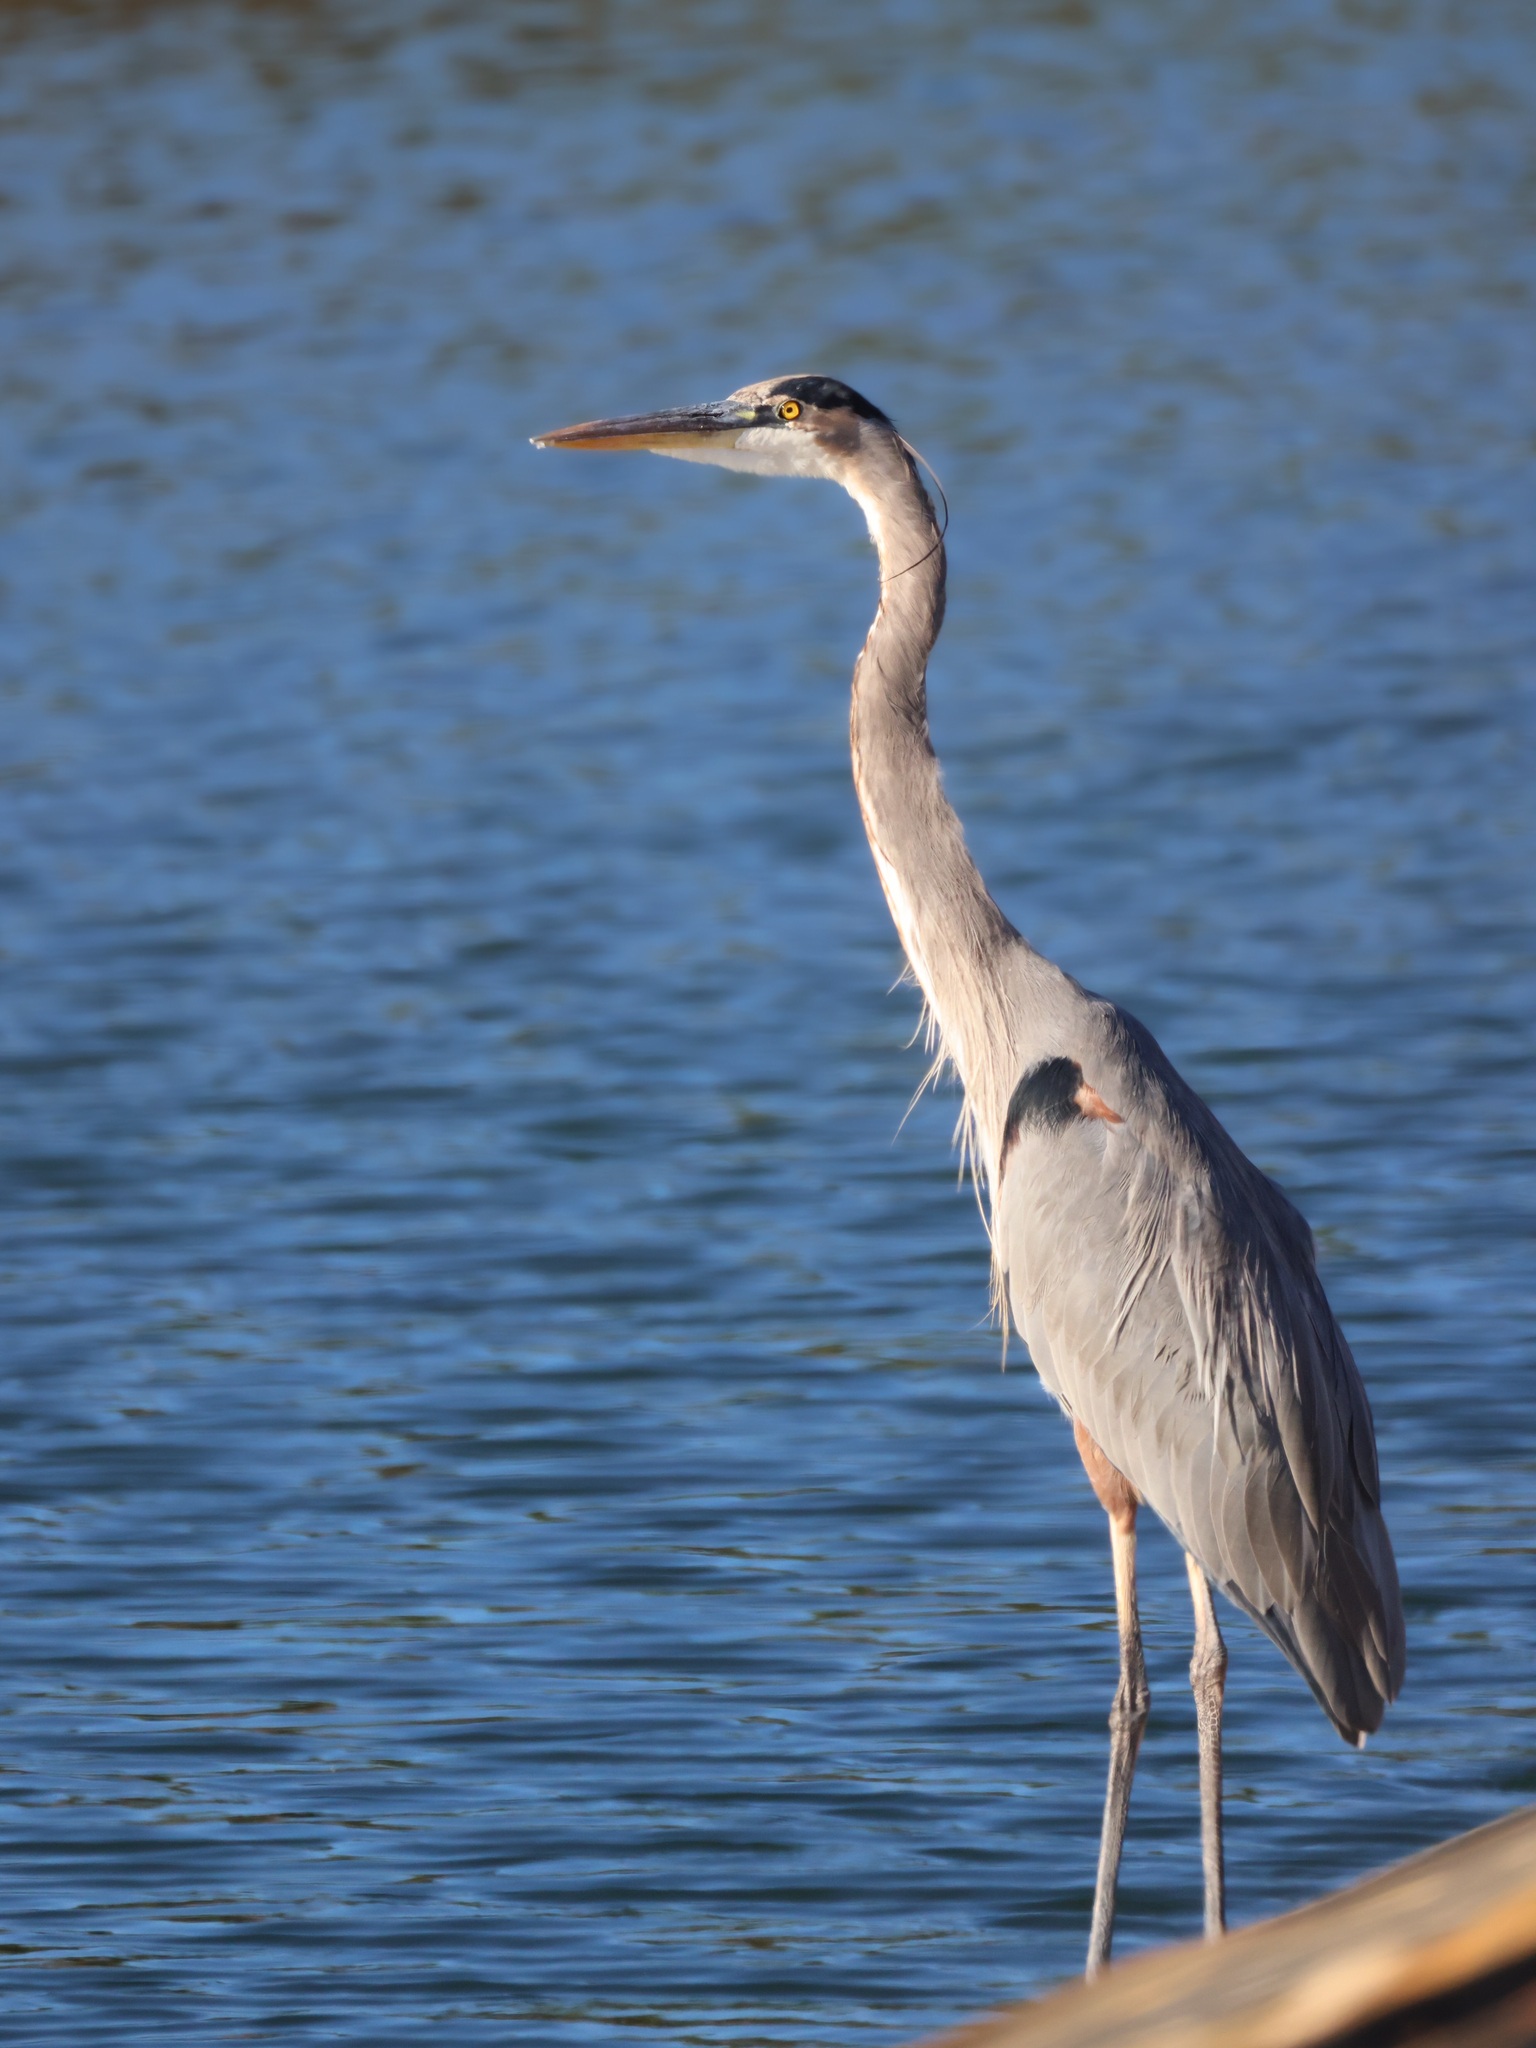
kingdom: Animalia
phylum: Chordata
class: Aves
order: Pelecaniformes
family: Ardeidae
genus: Ardea
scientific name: Ardea herodias
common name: Great blue heron
